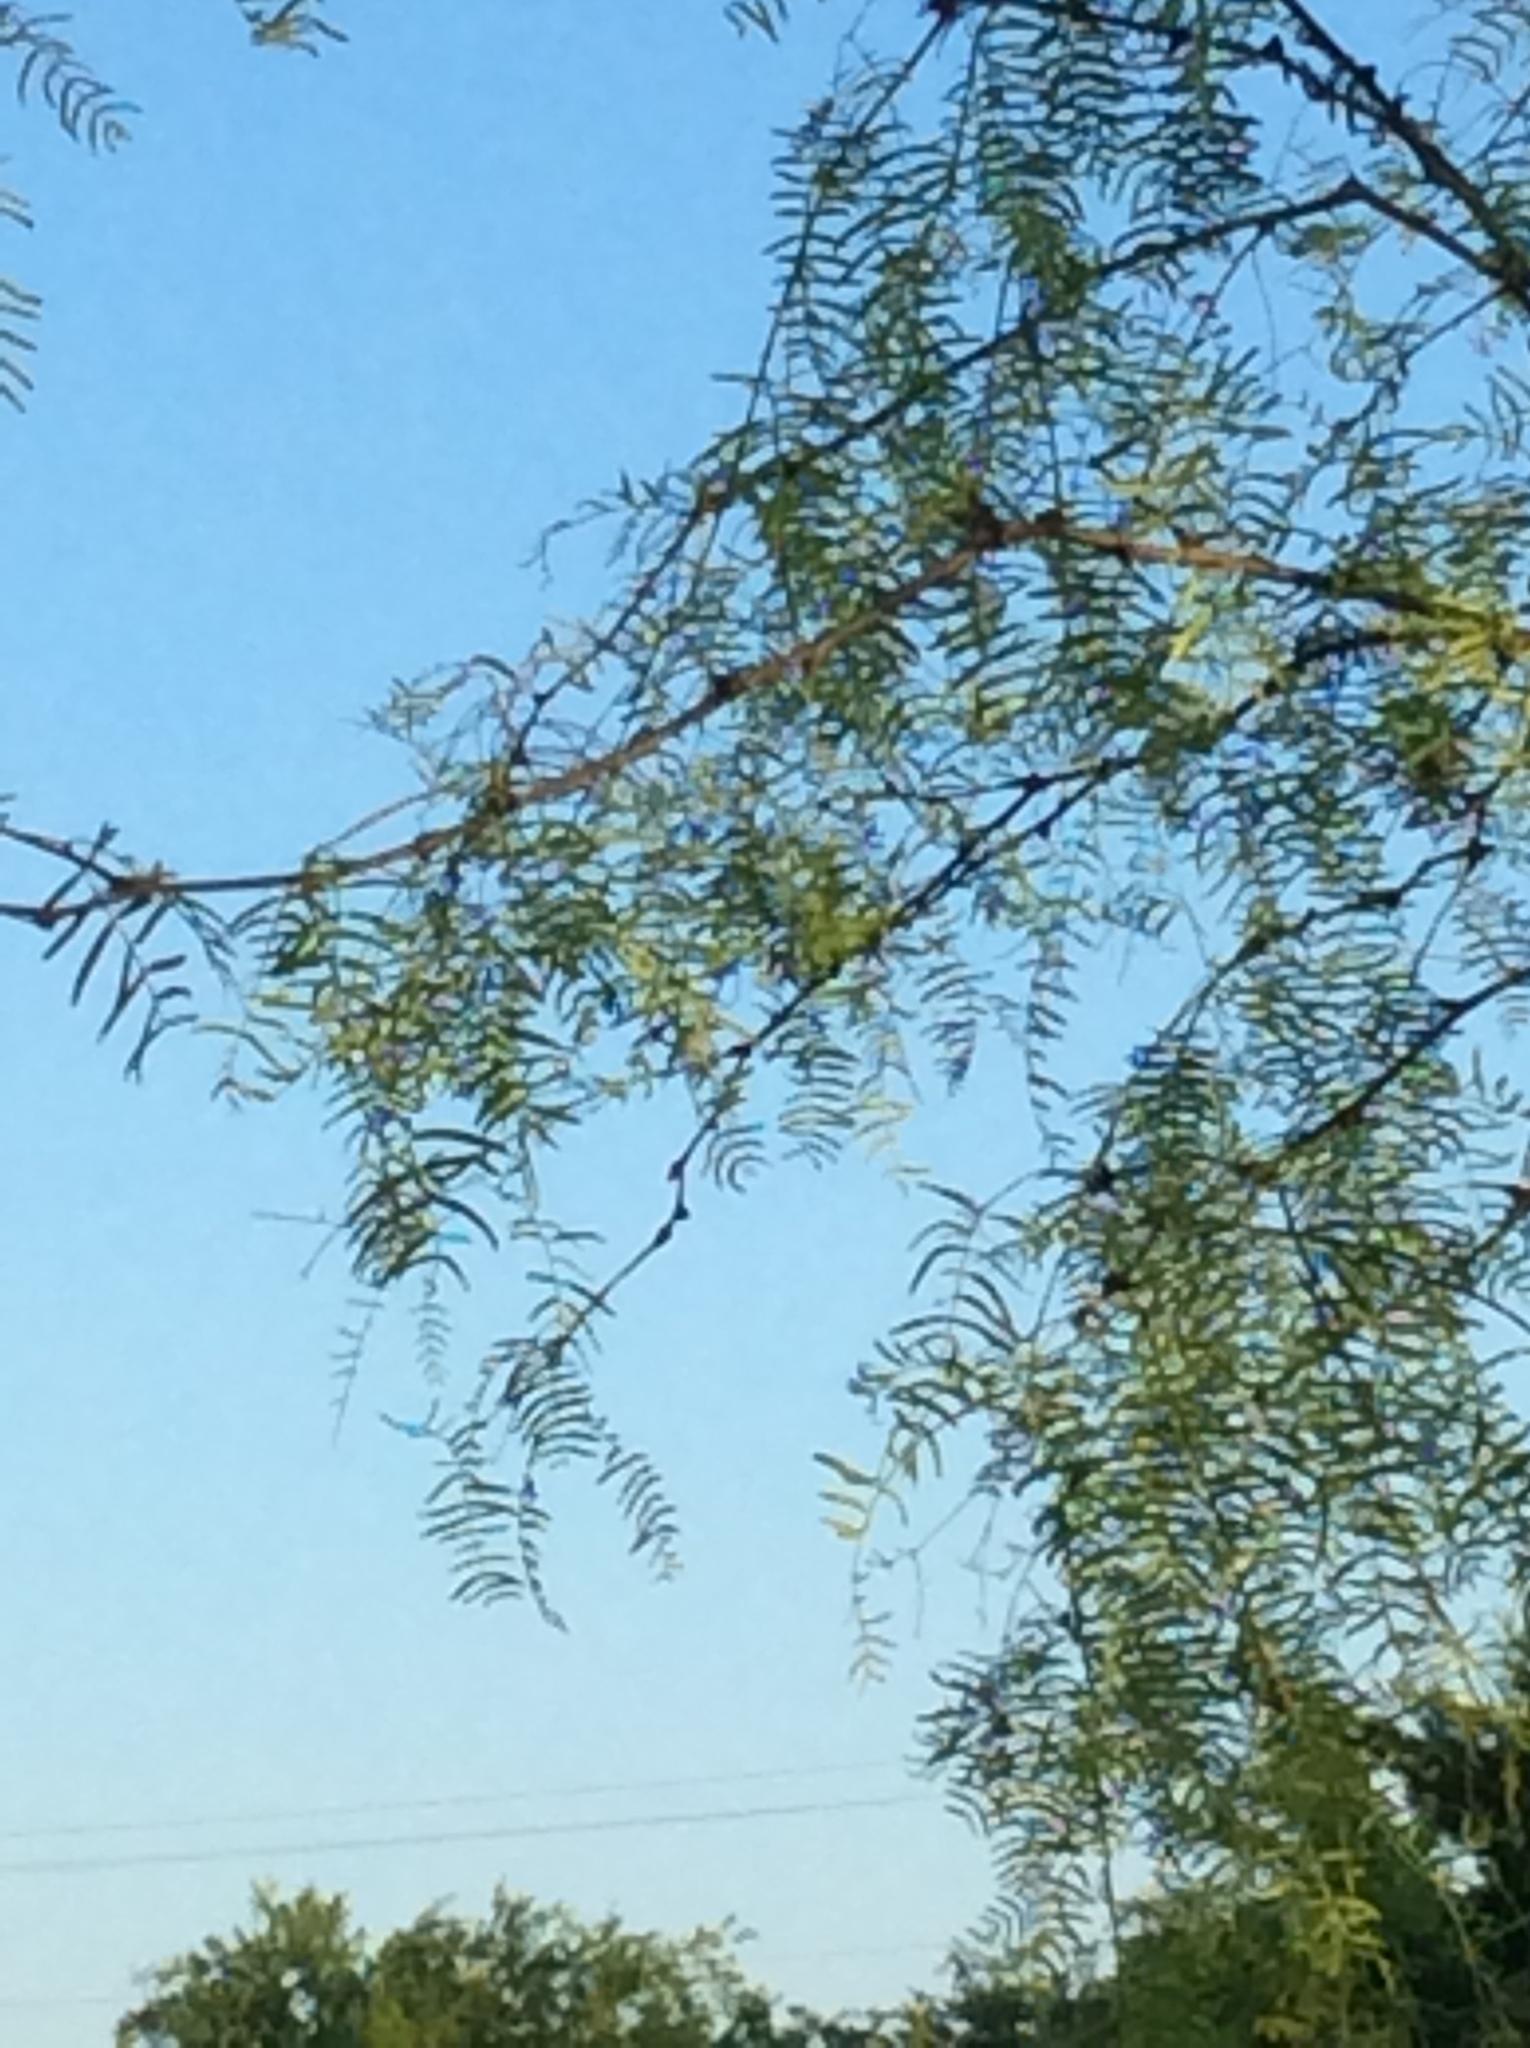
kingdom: Plantae
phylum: Tracheophyta
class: Magnoliopsida
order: Fabales
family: Fabaceae
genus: Prosopis
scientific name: Prosopis glandulosa
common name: Honey mesquite
